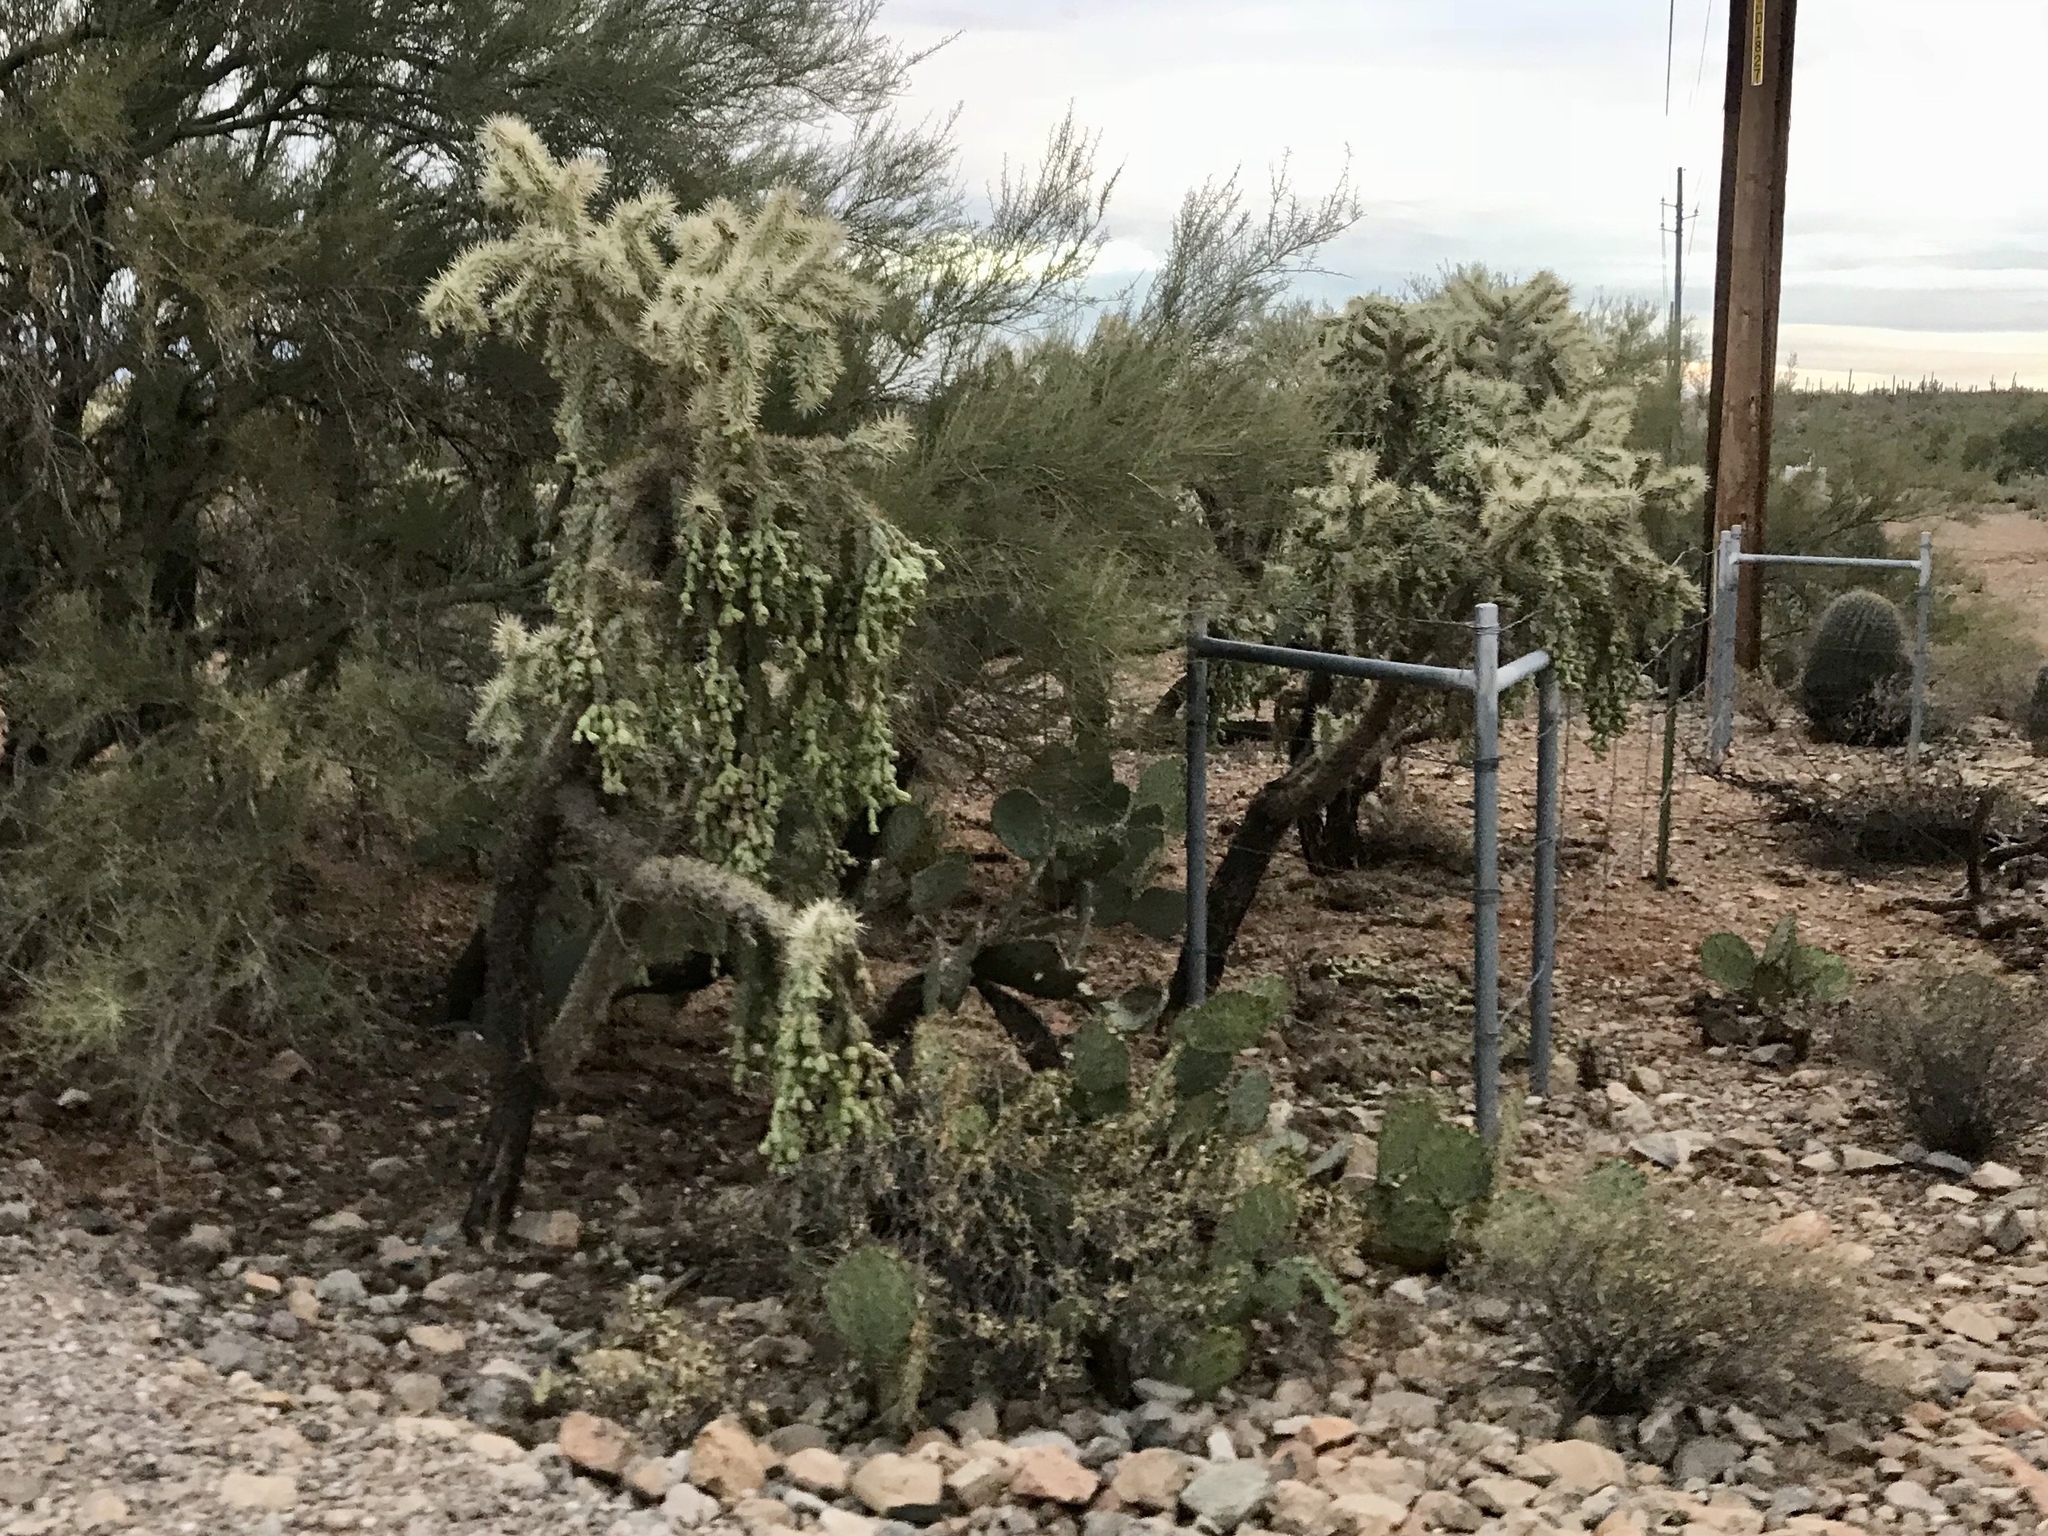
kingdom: Plantae
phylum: Tracheophyta
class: Magnoliopsida
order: Caryophyllales
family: Cactaceae
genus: Cylindropuntia
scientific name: Cylindropuntia fulgida
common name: Jumping cholla
